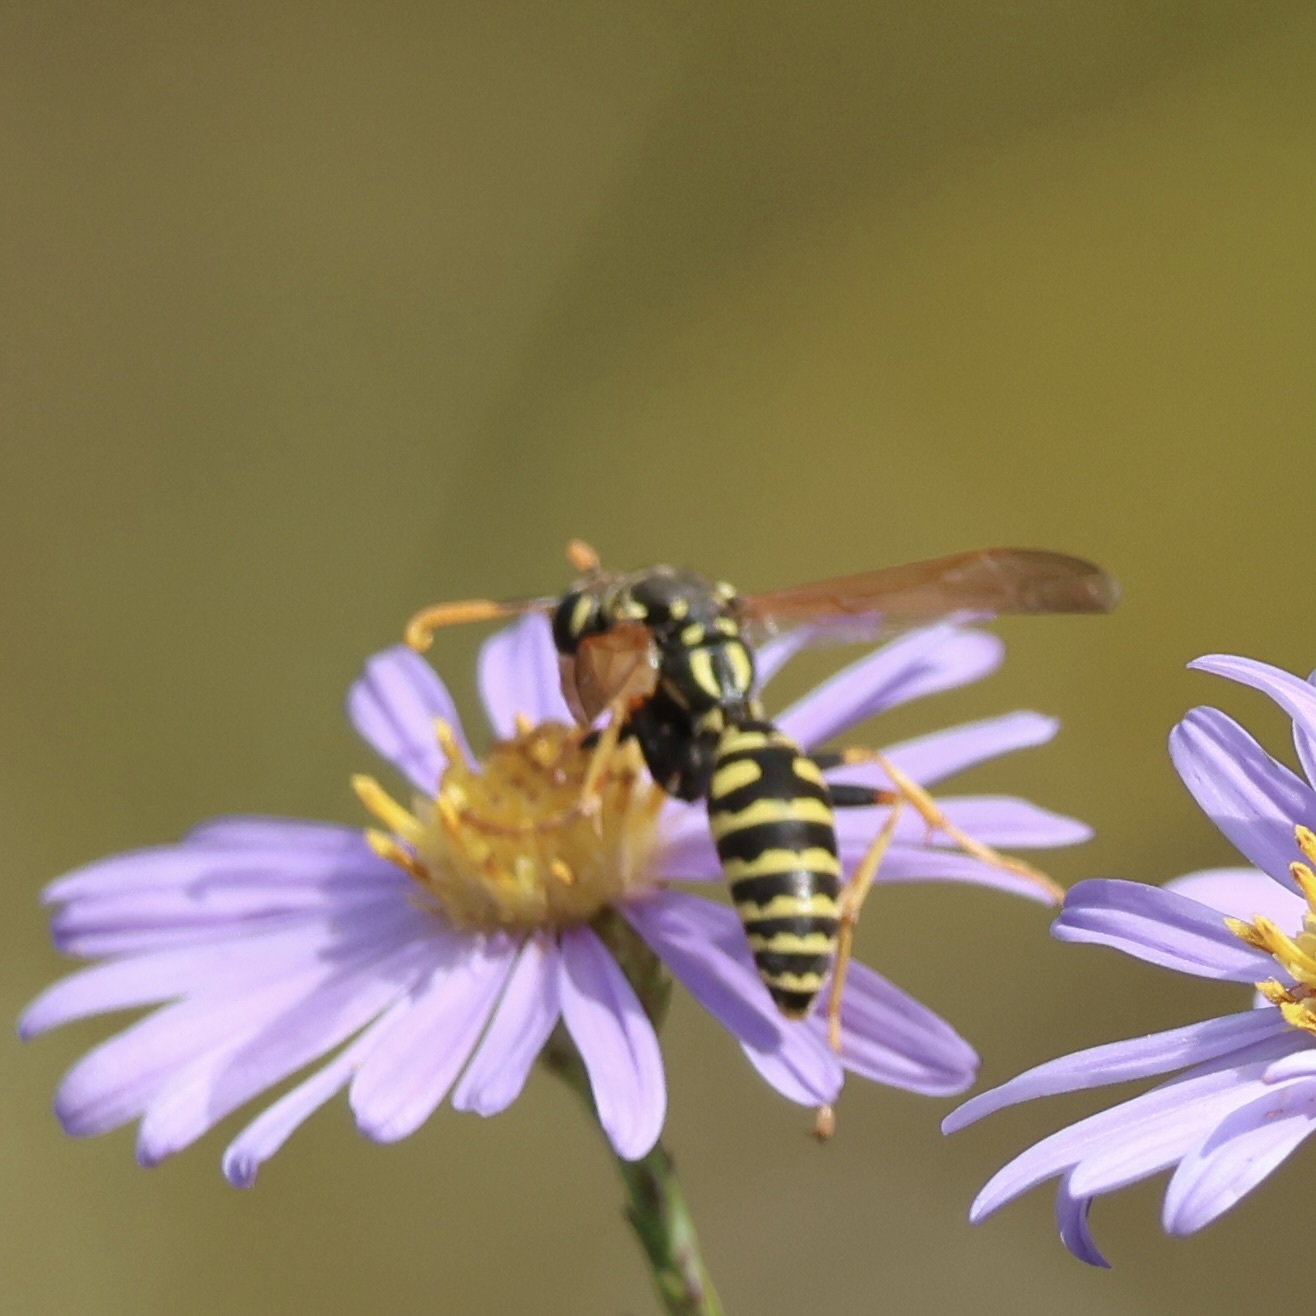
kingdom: Animalia
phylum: Arthropoda
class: Insecta
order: Hymenoptera
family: Eumenidae
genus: Polistes
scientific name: Polistes dominula
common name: Paper wasp
